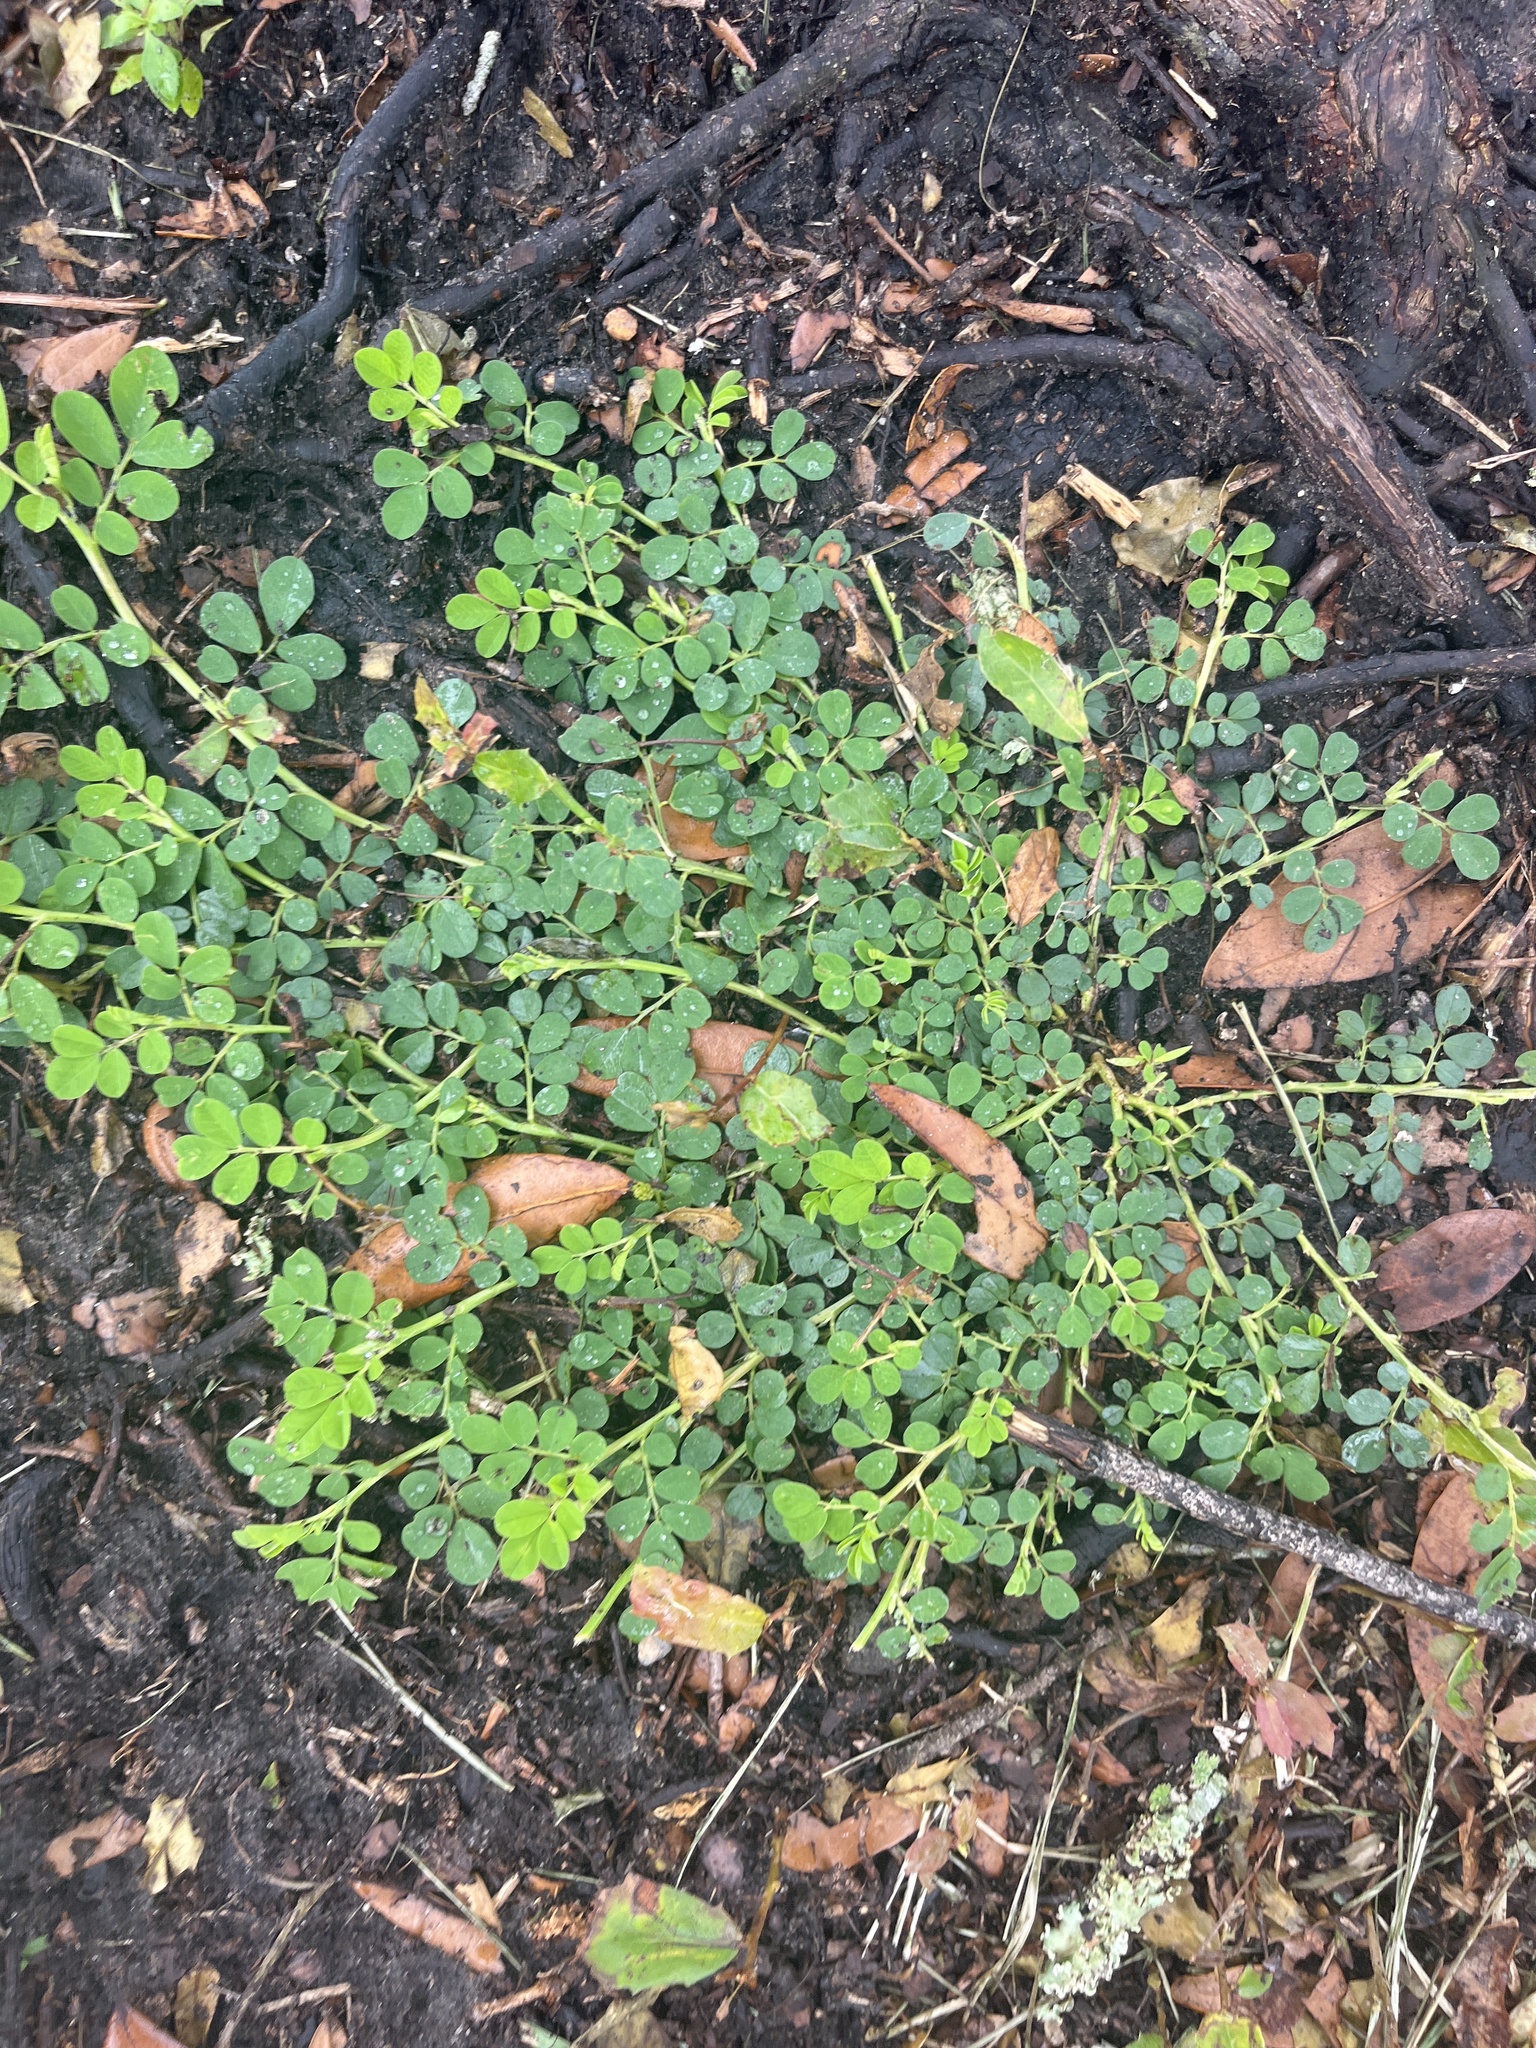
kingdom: Plantae
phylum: Tracheophyta
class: Magnoliopsida
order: Fabales
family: Fabaceae
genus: Indigofera
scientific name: Indigofera spicata
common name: Creeping indigo
